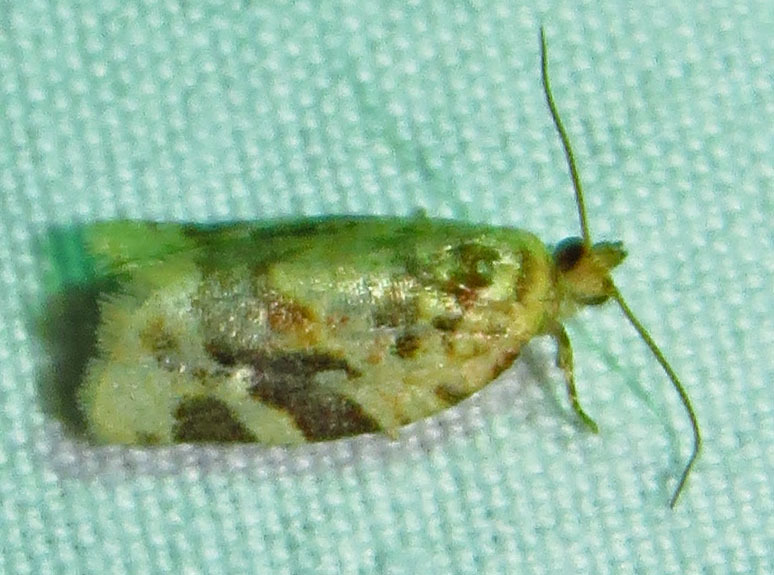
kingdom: Animalia
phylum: Arthropoda
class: Insecta
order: Lepidoptera
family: Tortricidae
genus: Argyrotaenia
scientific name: Argyrotaenia velutinana
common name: Red-banded leafroller moth
